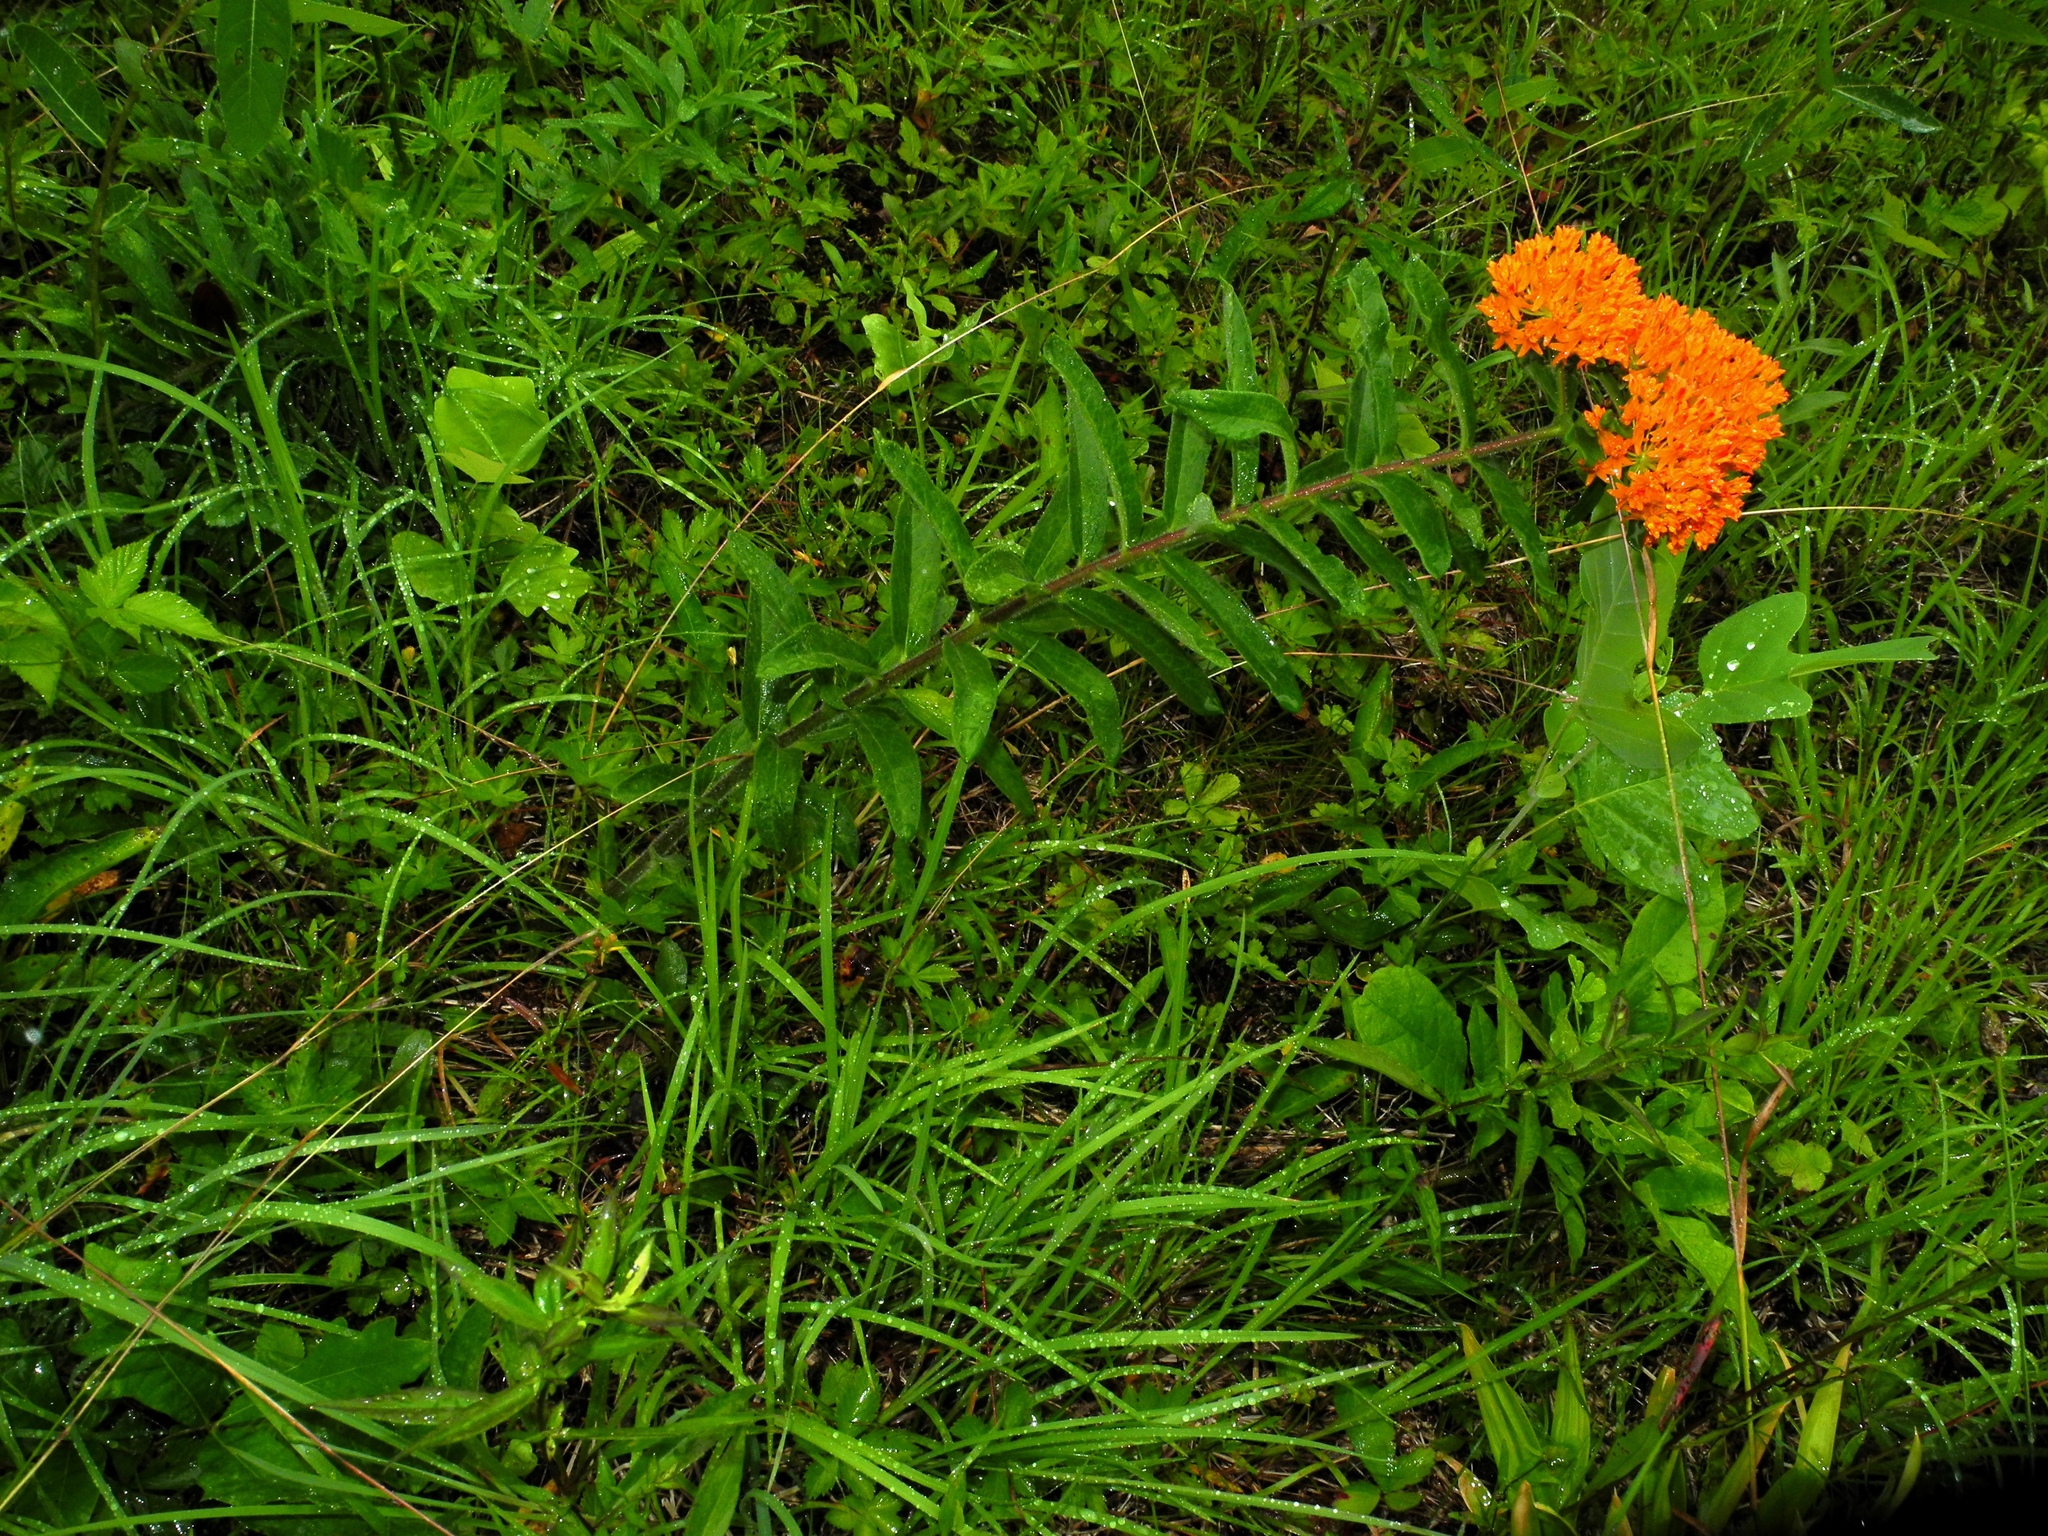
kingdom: Plantae
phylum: Tracheophyta
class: Magnoliopsida
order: Gentianales
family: Apocynaceae
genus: Asclepias
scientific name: Asclepias tuberosa
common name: Butterfly milkweed
